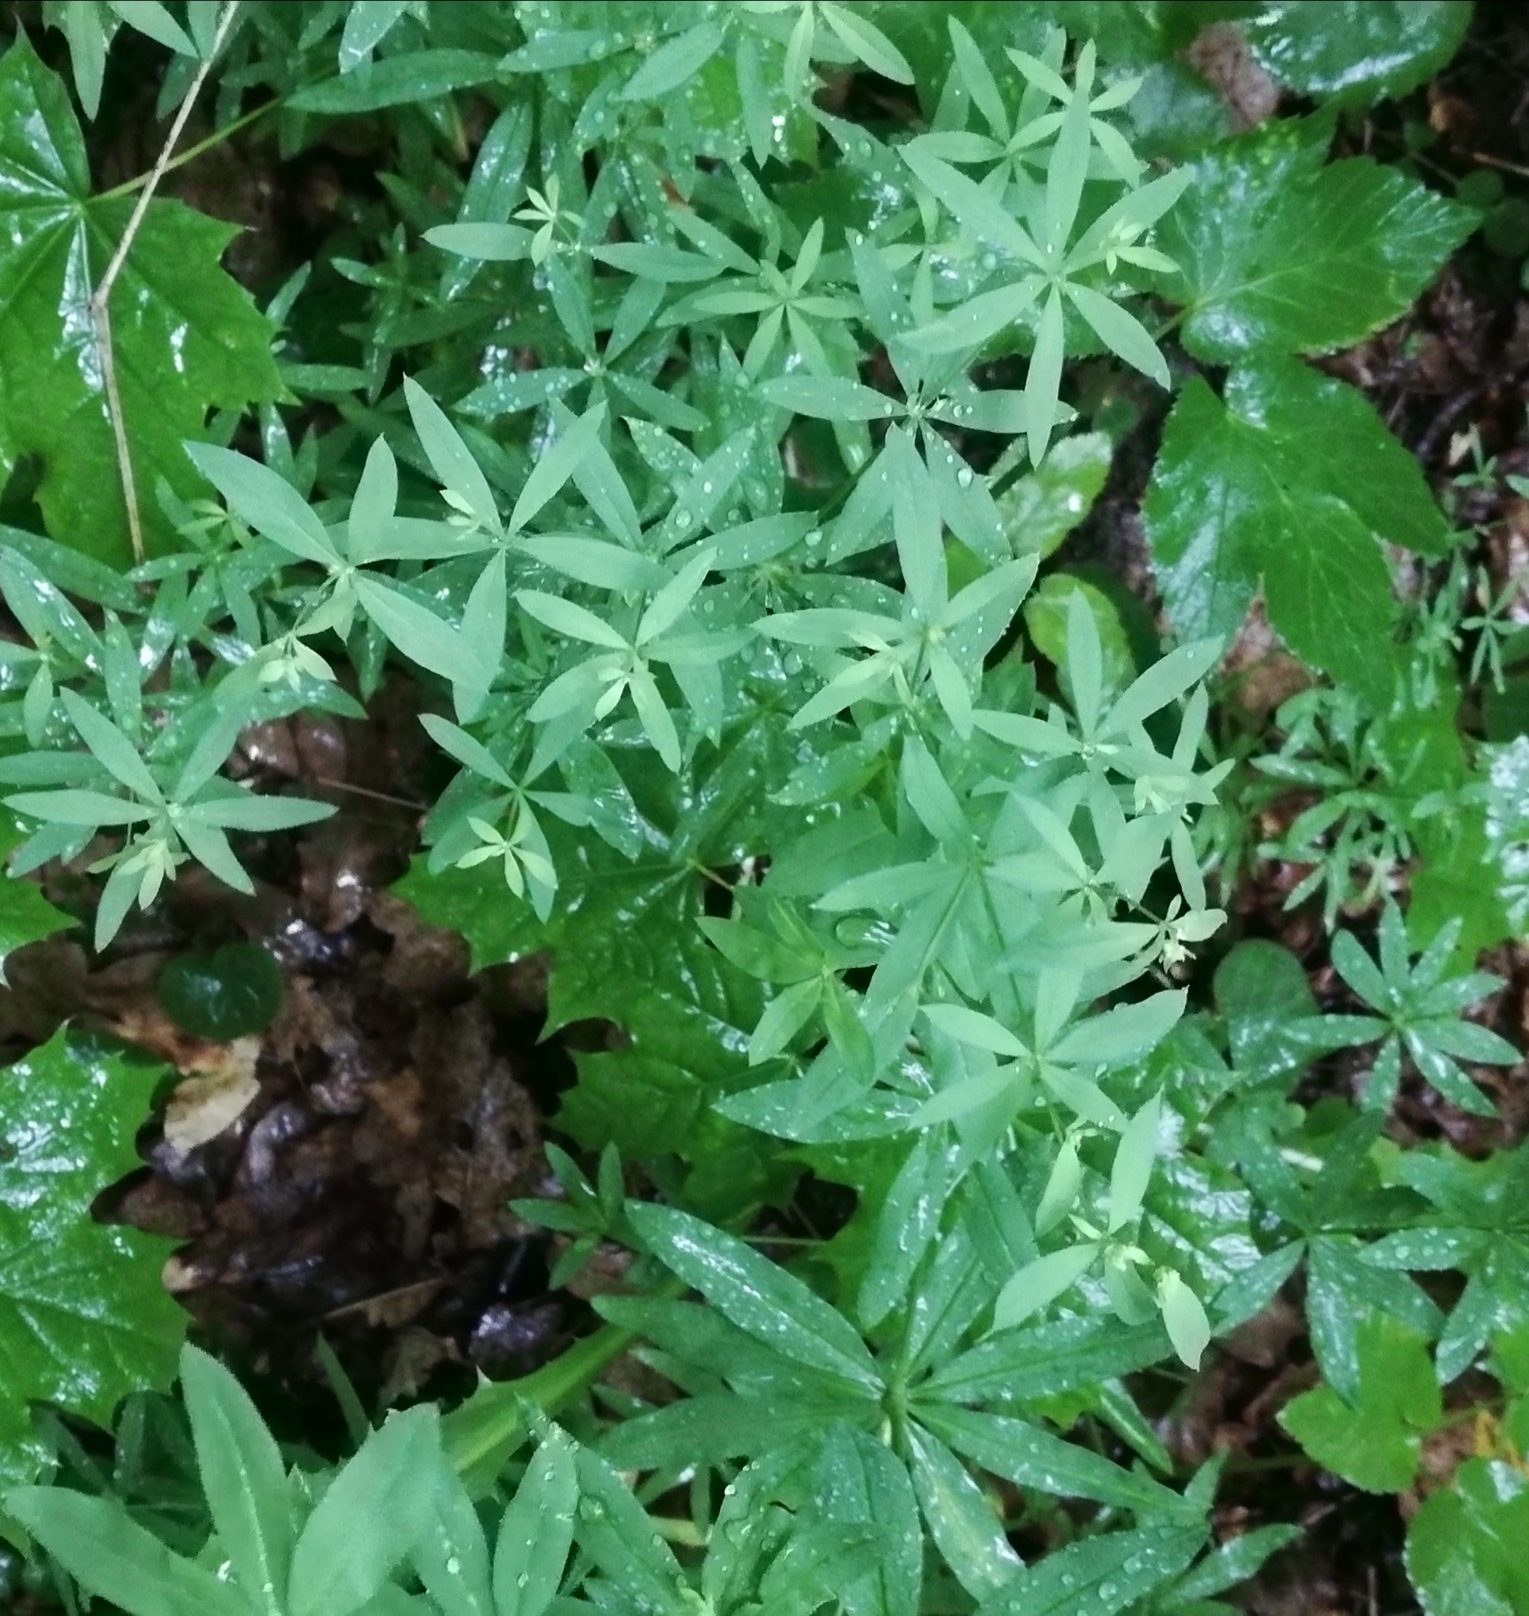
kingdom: Plantae
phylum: Tracheophyta
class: Magnoliopsida
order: Gentianales
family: Rubiaceae
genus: Galium
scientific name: Galium intermedium
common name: Bedstraw
